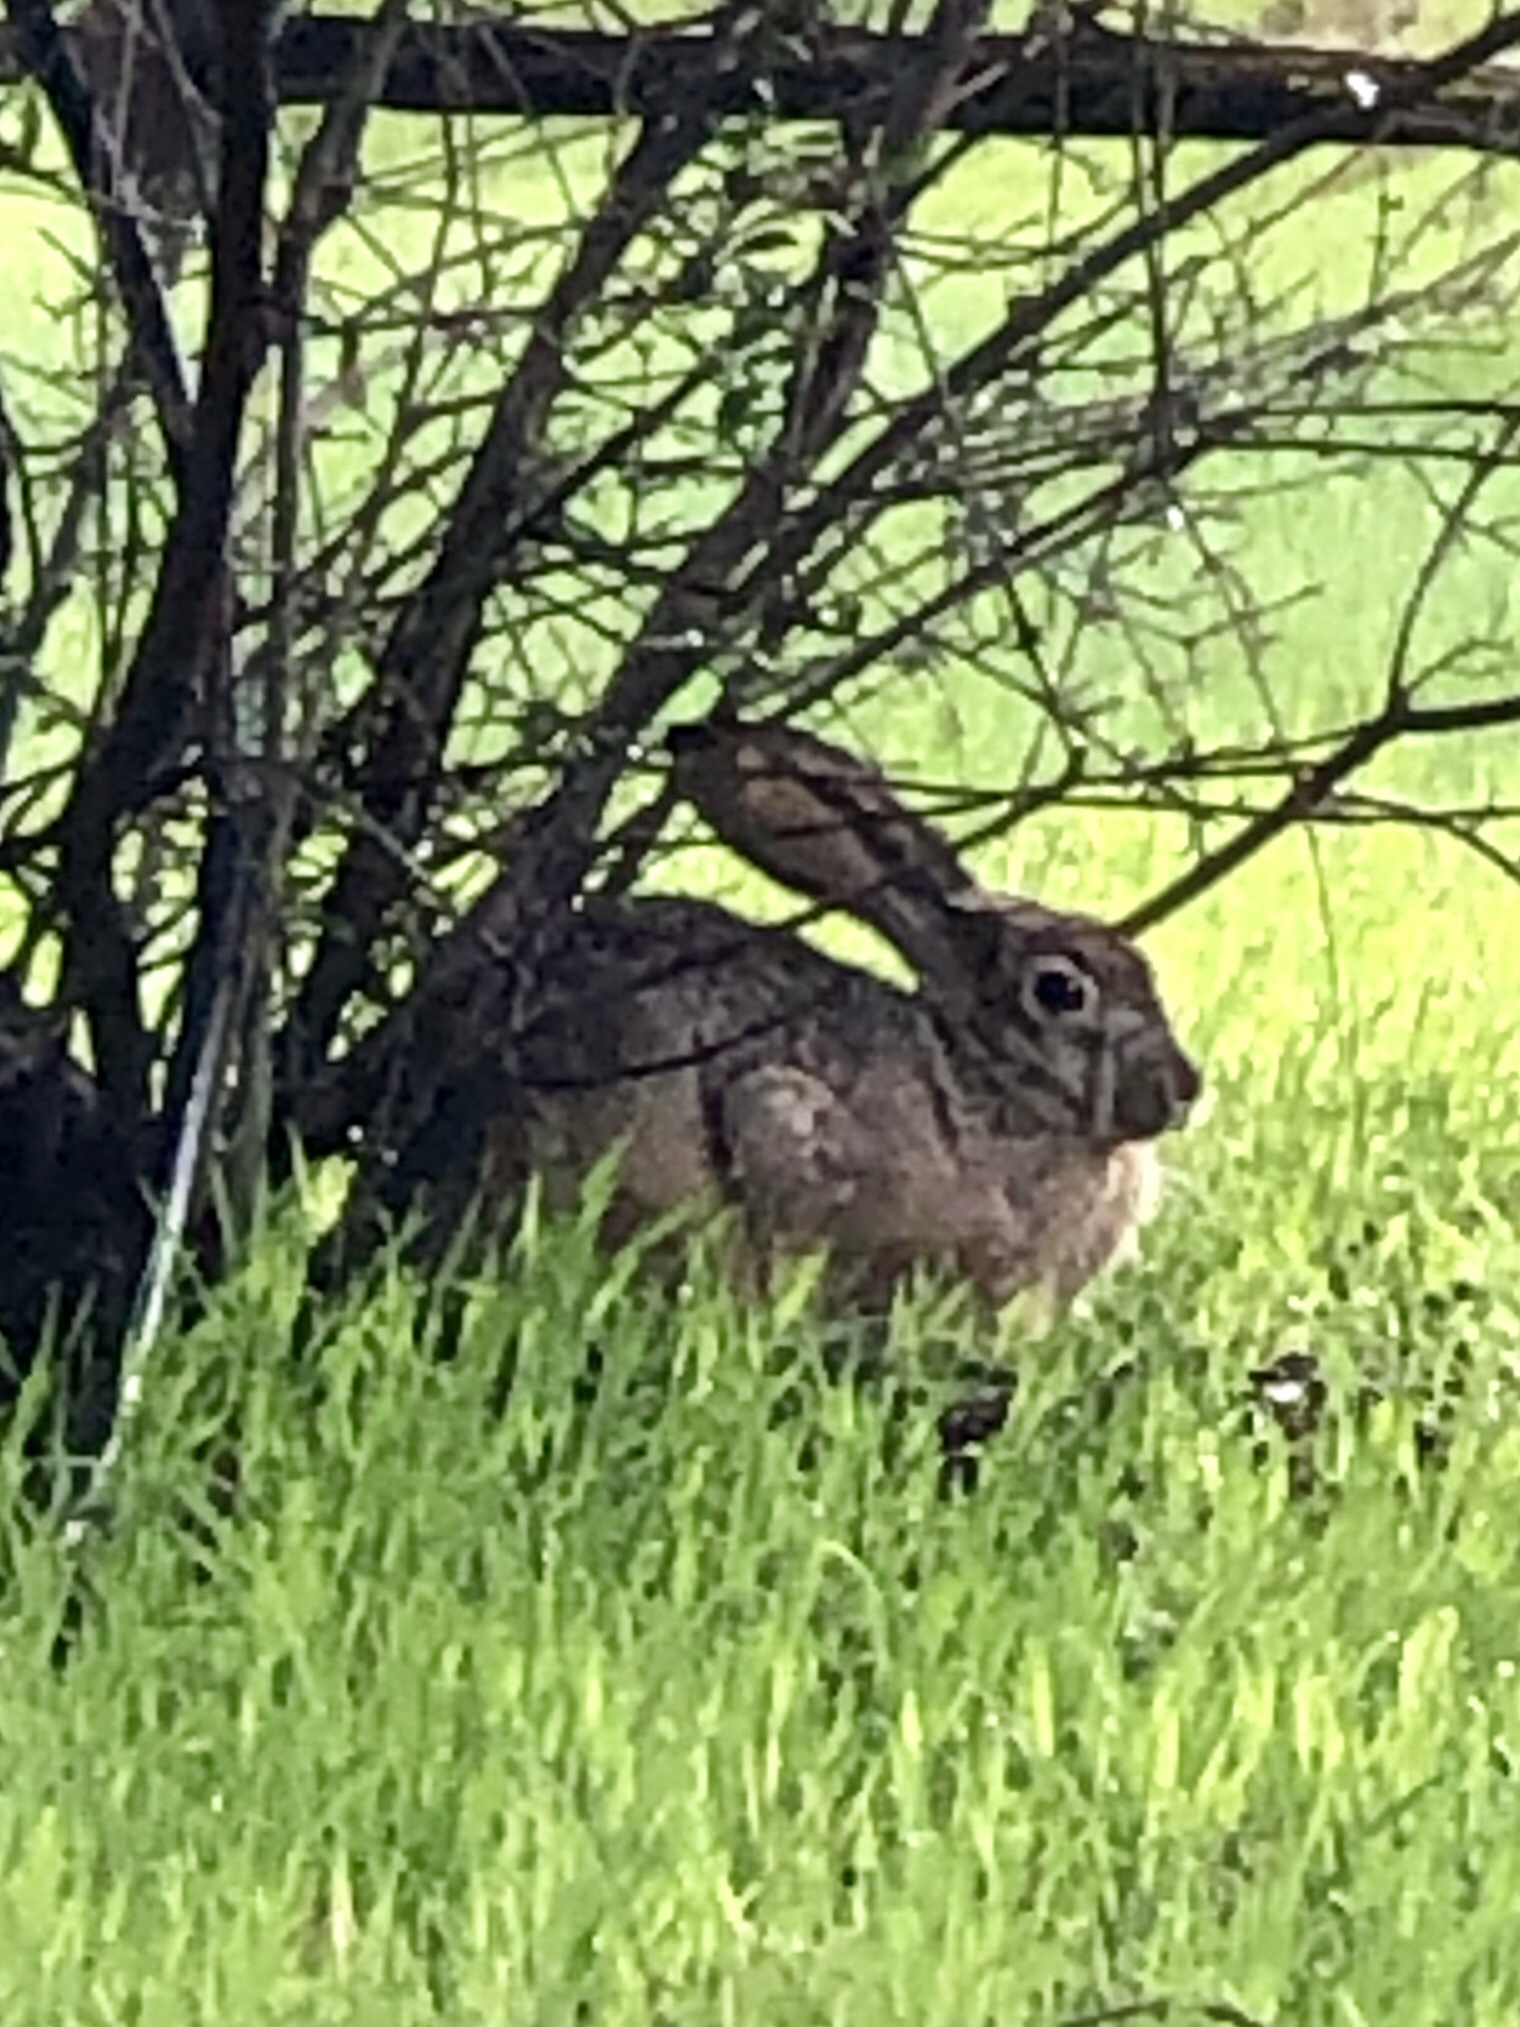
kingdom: Animalia
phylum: Chordata
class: Mammalia
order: Lagomorpha
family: Leporidae
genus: Lepus
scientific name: Lepus californicus
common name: Black-tailed jackrabbit
